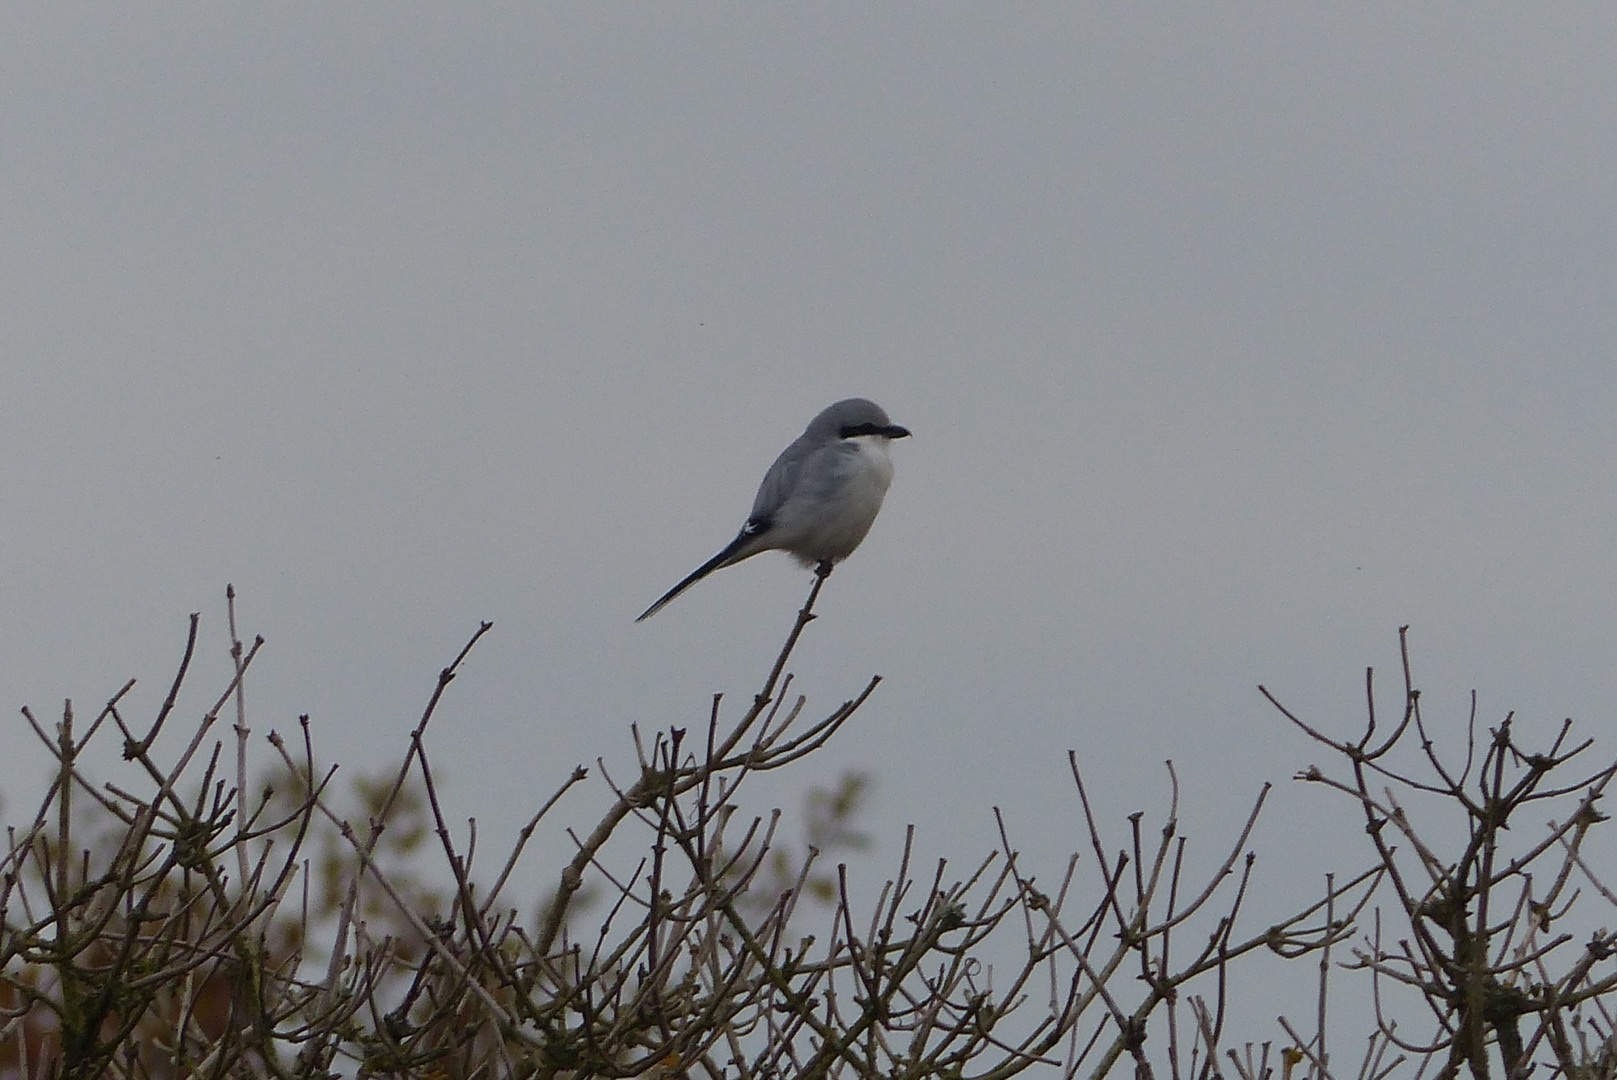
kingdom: Animalia
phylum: Chordata
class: Aves
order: Passeriformes
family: Laniidae
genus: Lanius
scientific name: Lanius excubitor
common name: Great grey shrike
